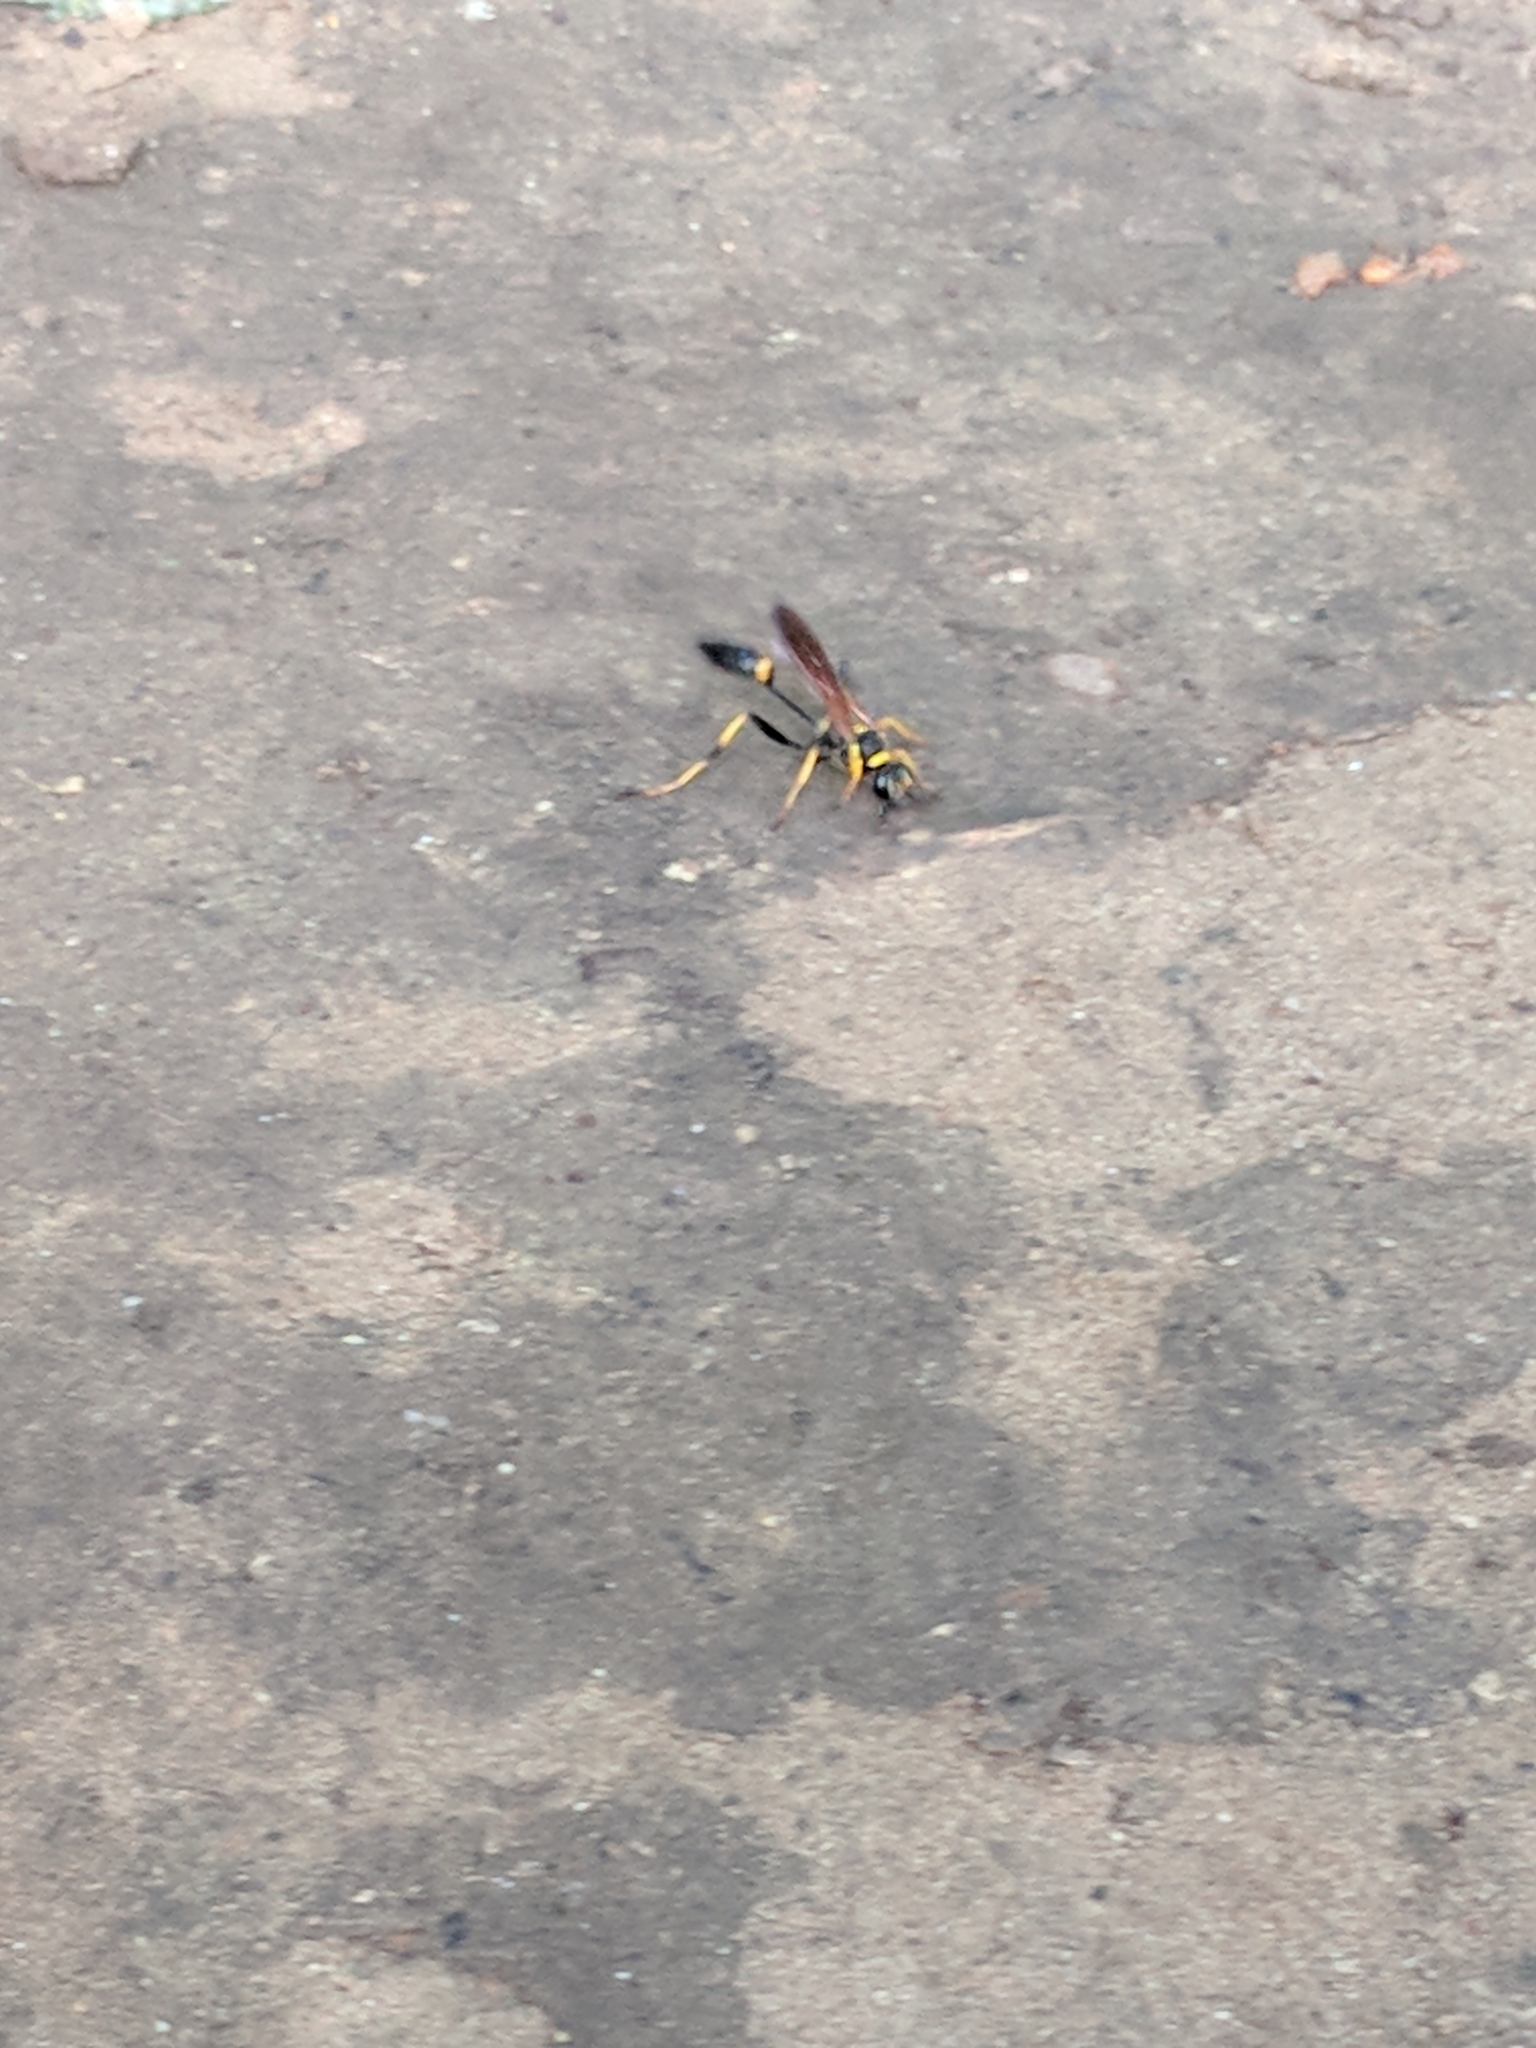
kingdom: Animalia
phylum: Arthropoda
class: Insecta
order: Hymenoptera
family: Sphecidae
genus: Sceliphron
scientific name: Sceliphron caementarium
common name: Mud dauber
